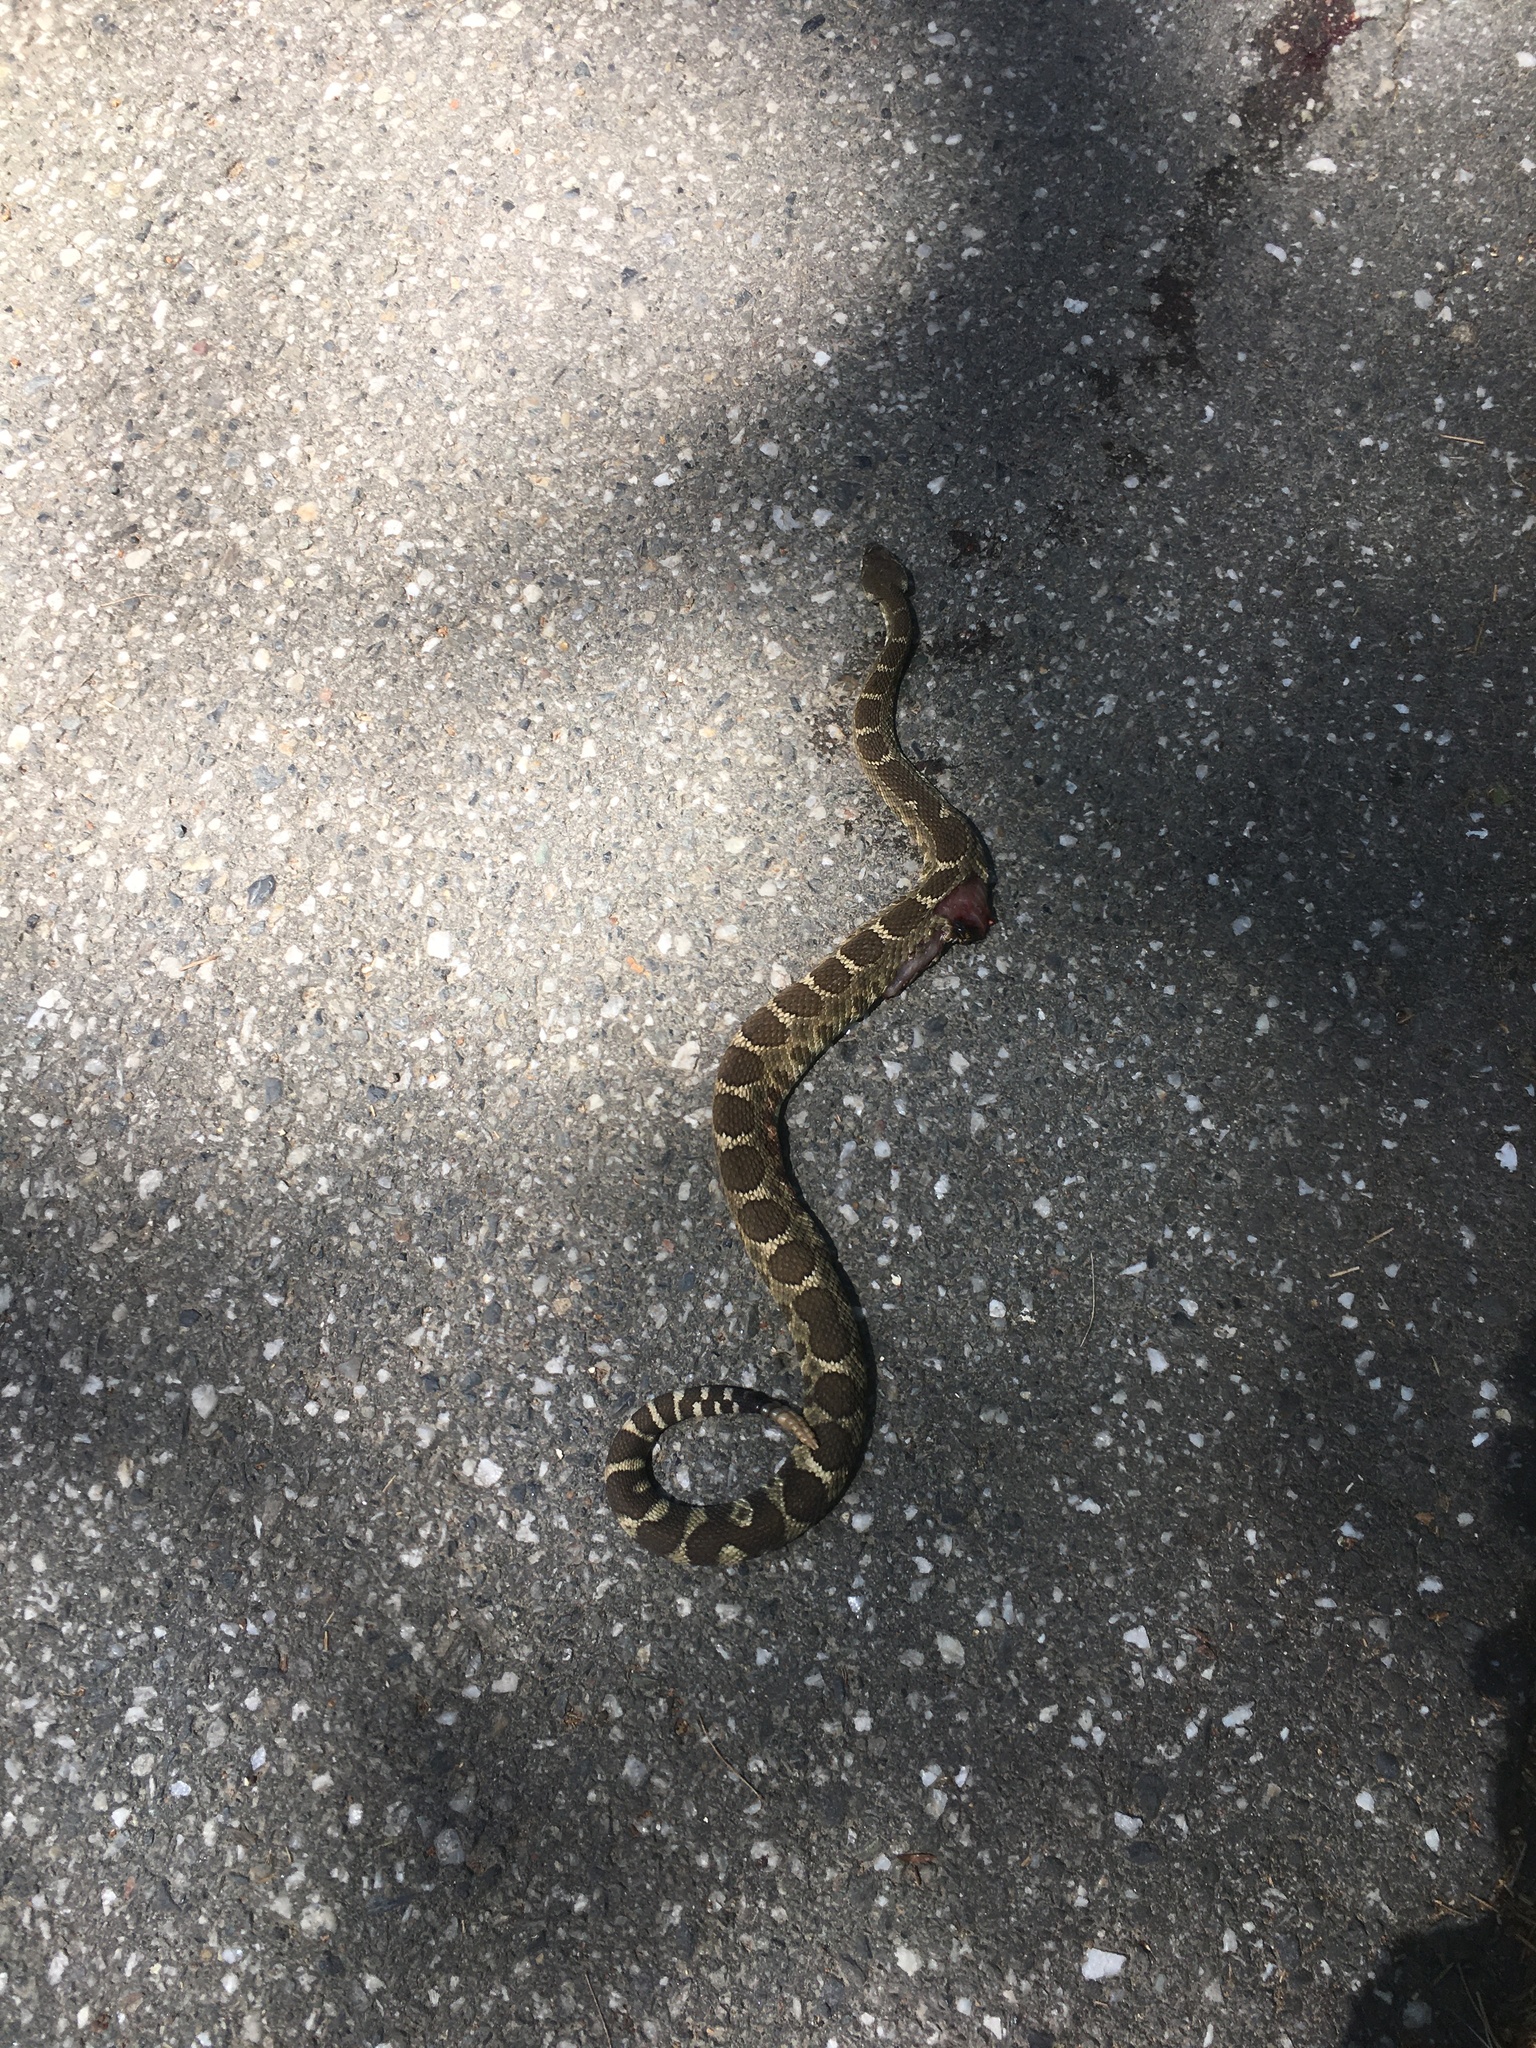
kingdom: Animalia
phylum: Chordata
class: Squamata
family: Viperidae
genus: Crotalus
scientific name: Crotalus oreganus
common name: Abyssus
